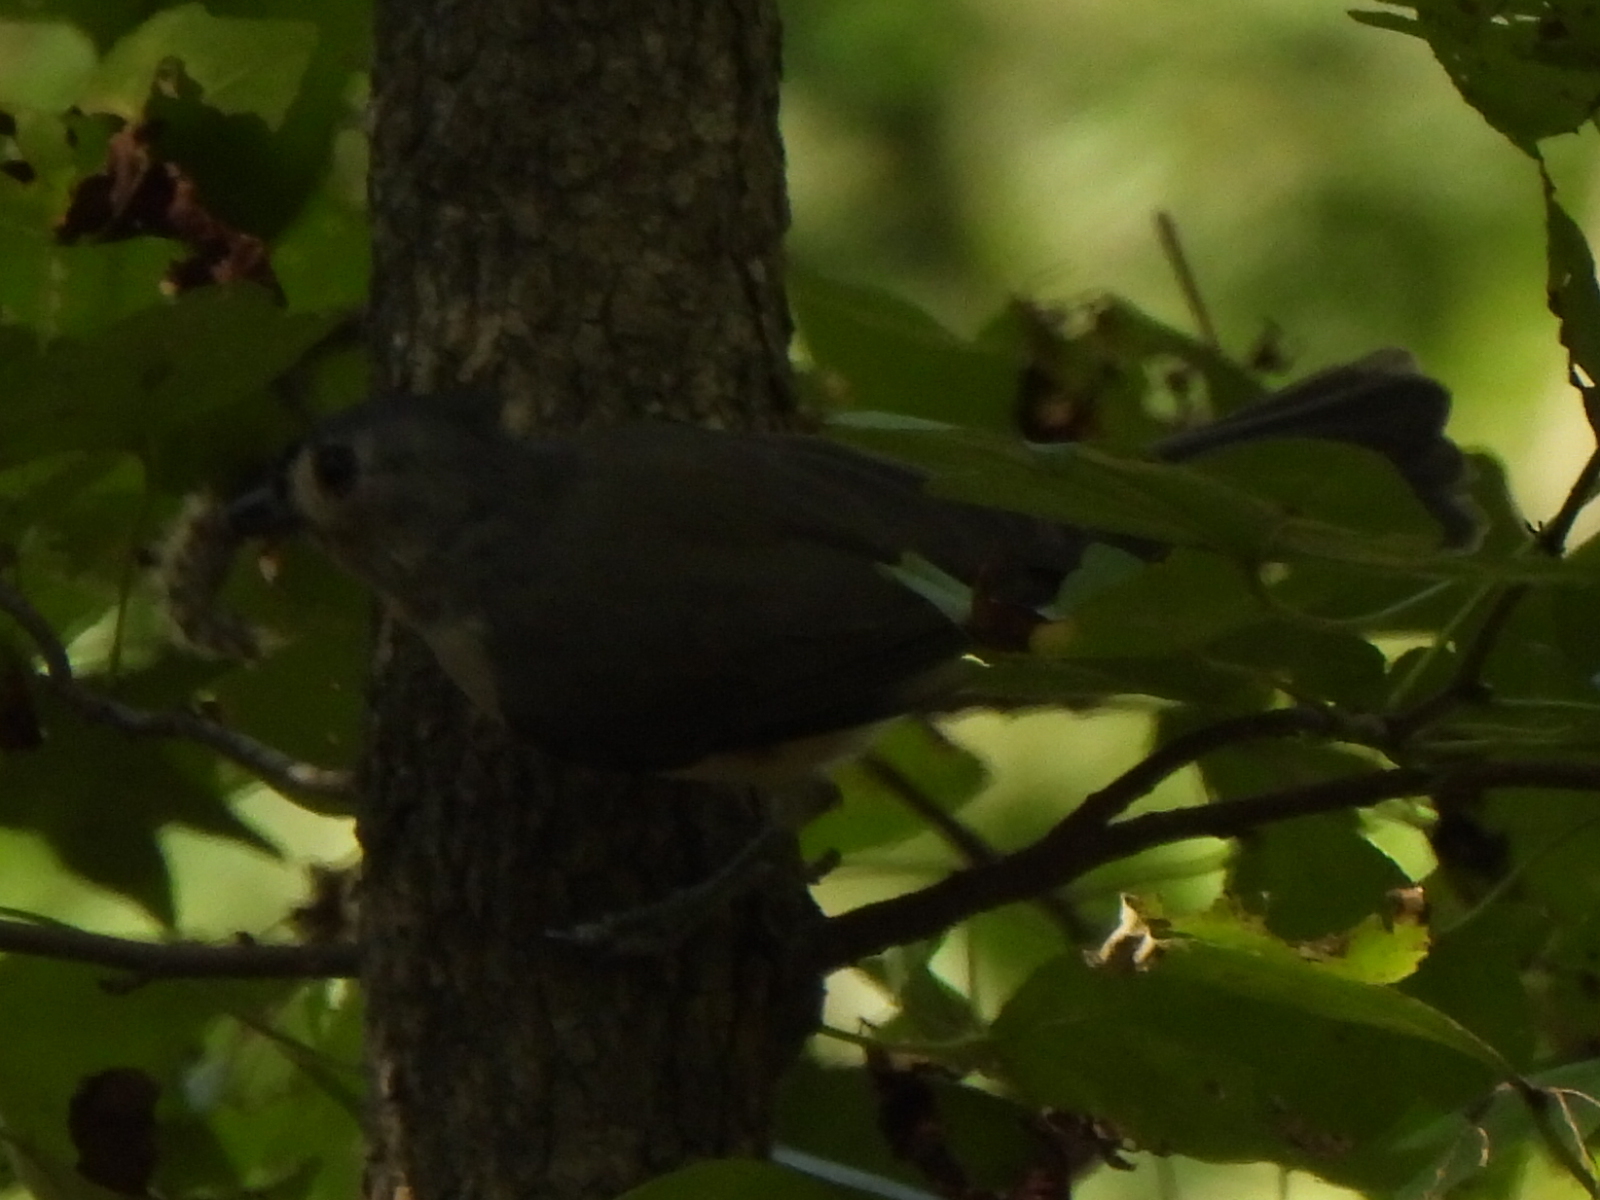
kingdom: Animalia
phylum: Chordata
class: Aves
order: Passeriformes
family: Paridae
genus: Baeolophus
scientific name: Baeolophus bicolor
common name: Tufted titmouse
